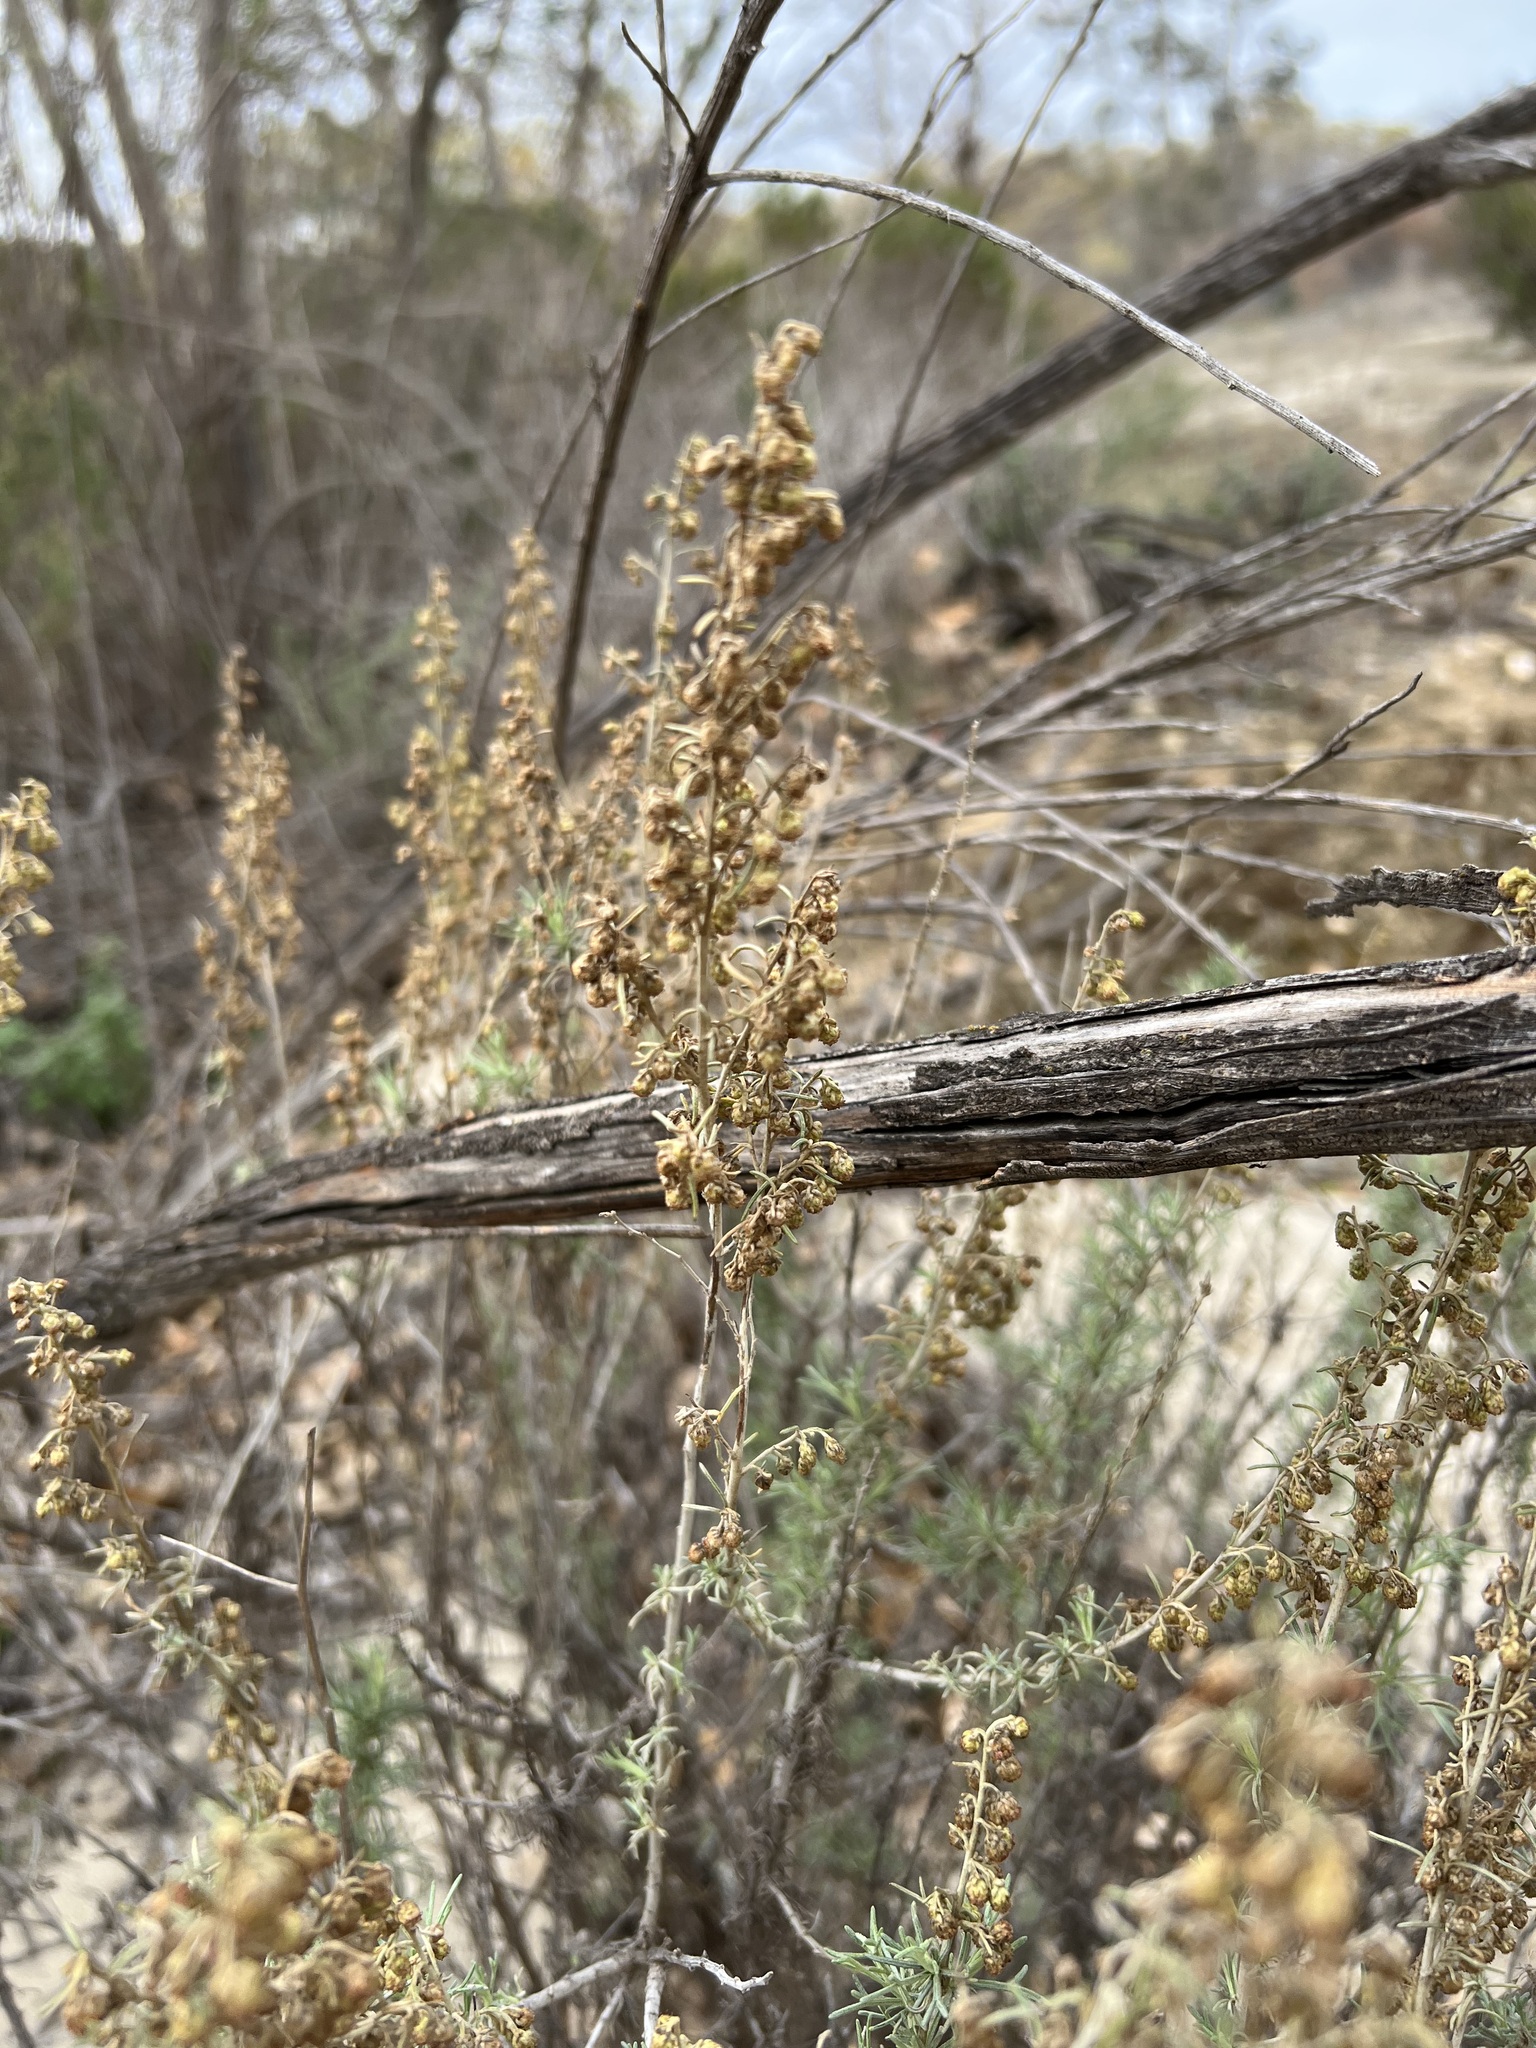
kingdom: Plantae
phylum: Tracheophyta
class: Magnoliopsida
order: Asterales
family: Asteraceae
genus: Artemisia
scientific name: Artemisia californica
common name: California sagebrush
